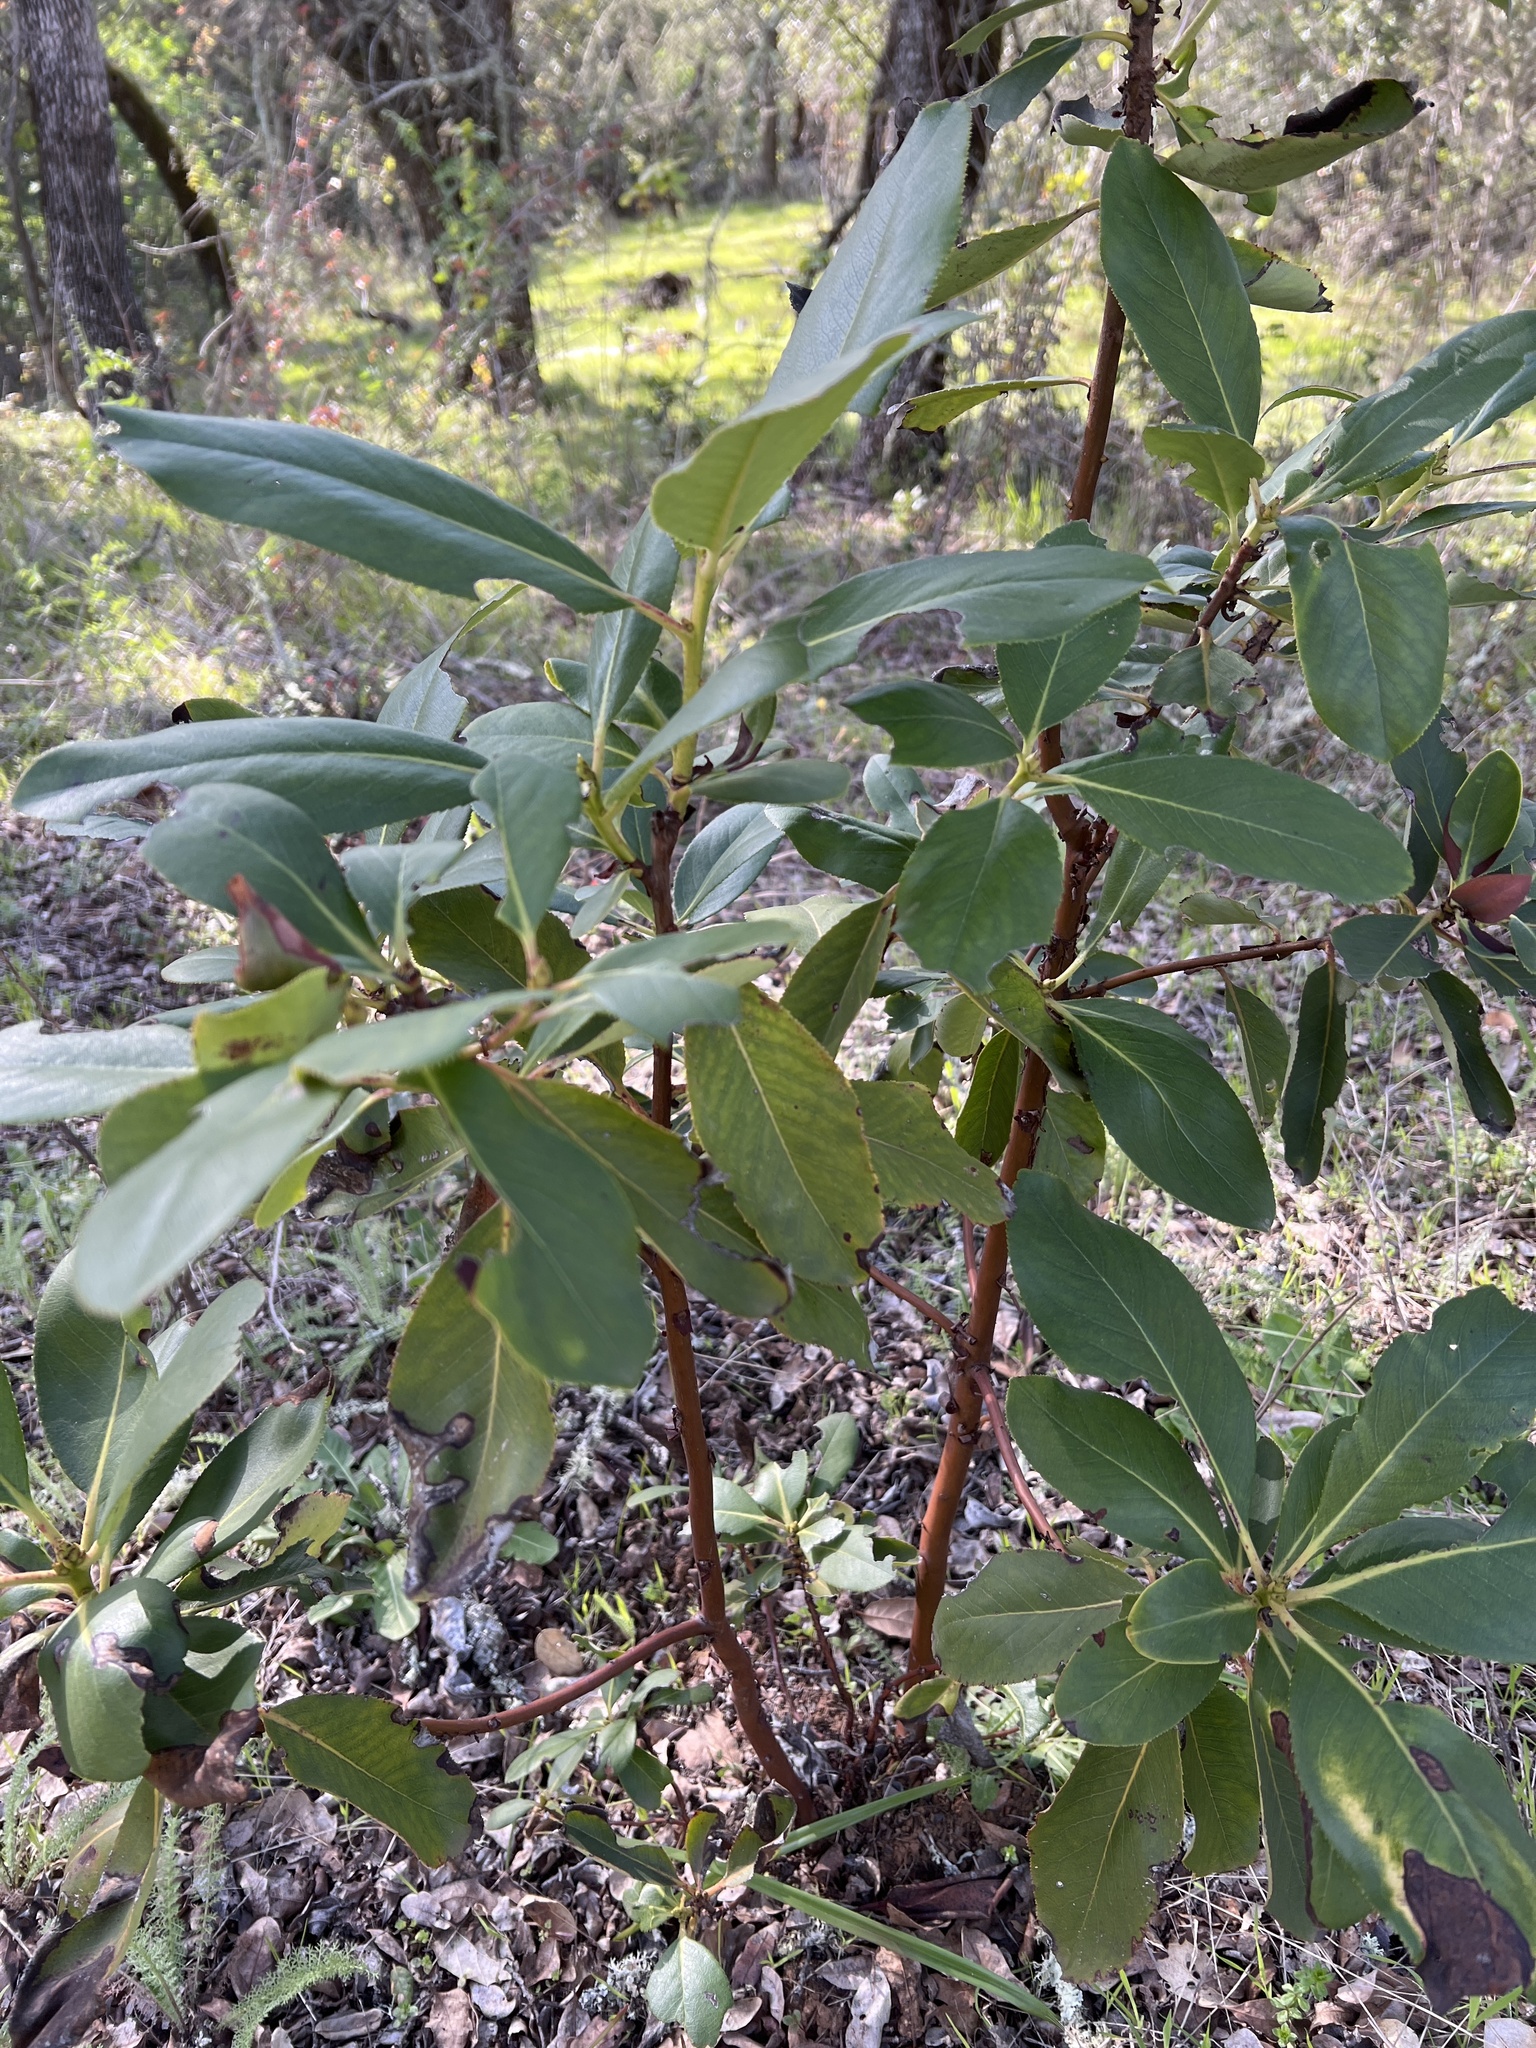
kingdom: Plantae
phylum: Tracheophyta
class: Magnoliopsida
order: Ericales
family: Ericaceae
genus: Arbutus
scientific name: Arbutus menziesii
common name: Pacific madrone
